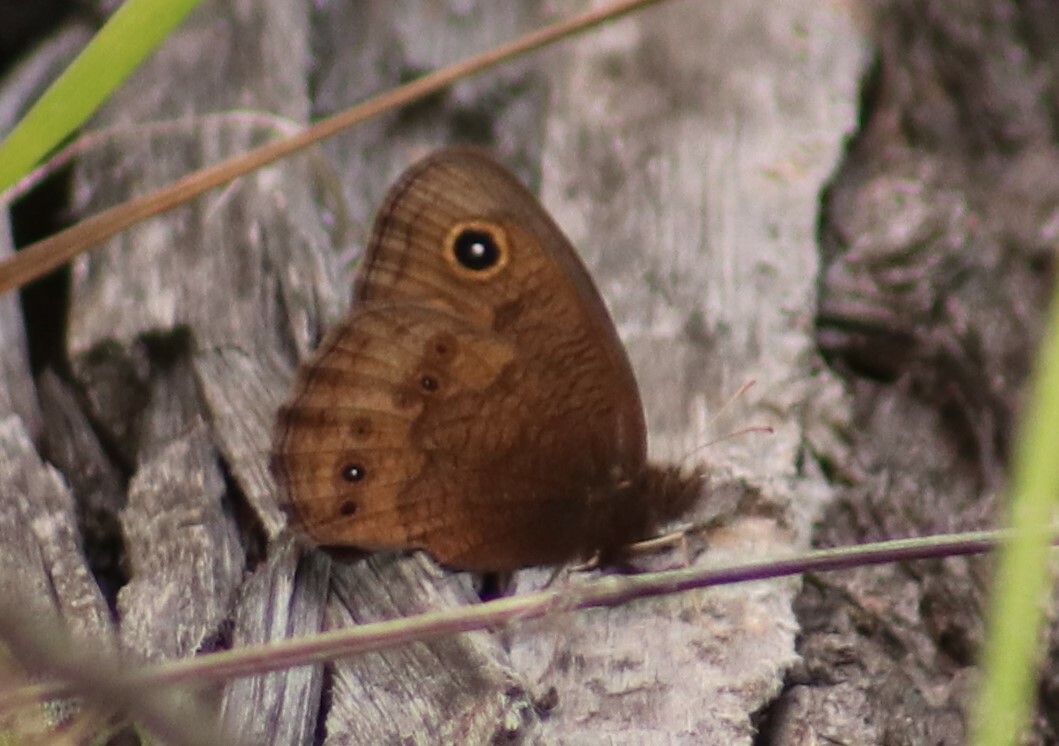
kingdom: Animalia
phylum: Arthropoda
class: Insecta
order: Lepidoptera
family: Nymphalidae
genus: Cercyonis
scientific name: Cercyonis pegala
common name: Common wood-nymph
